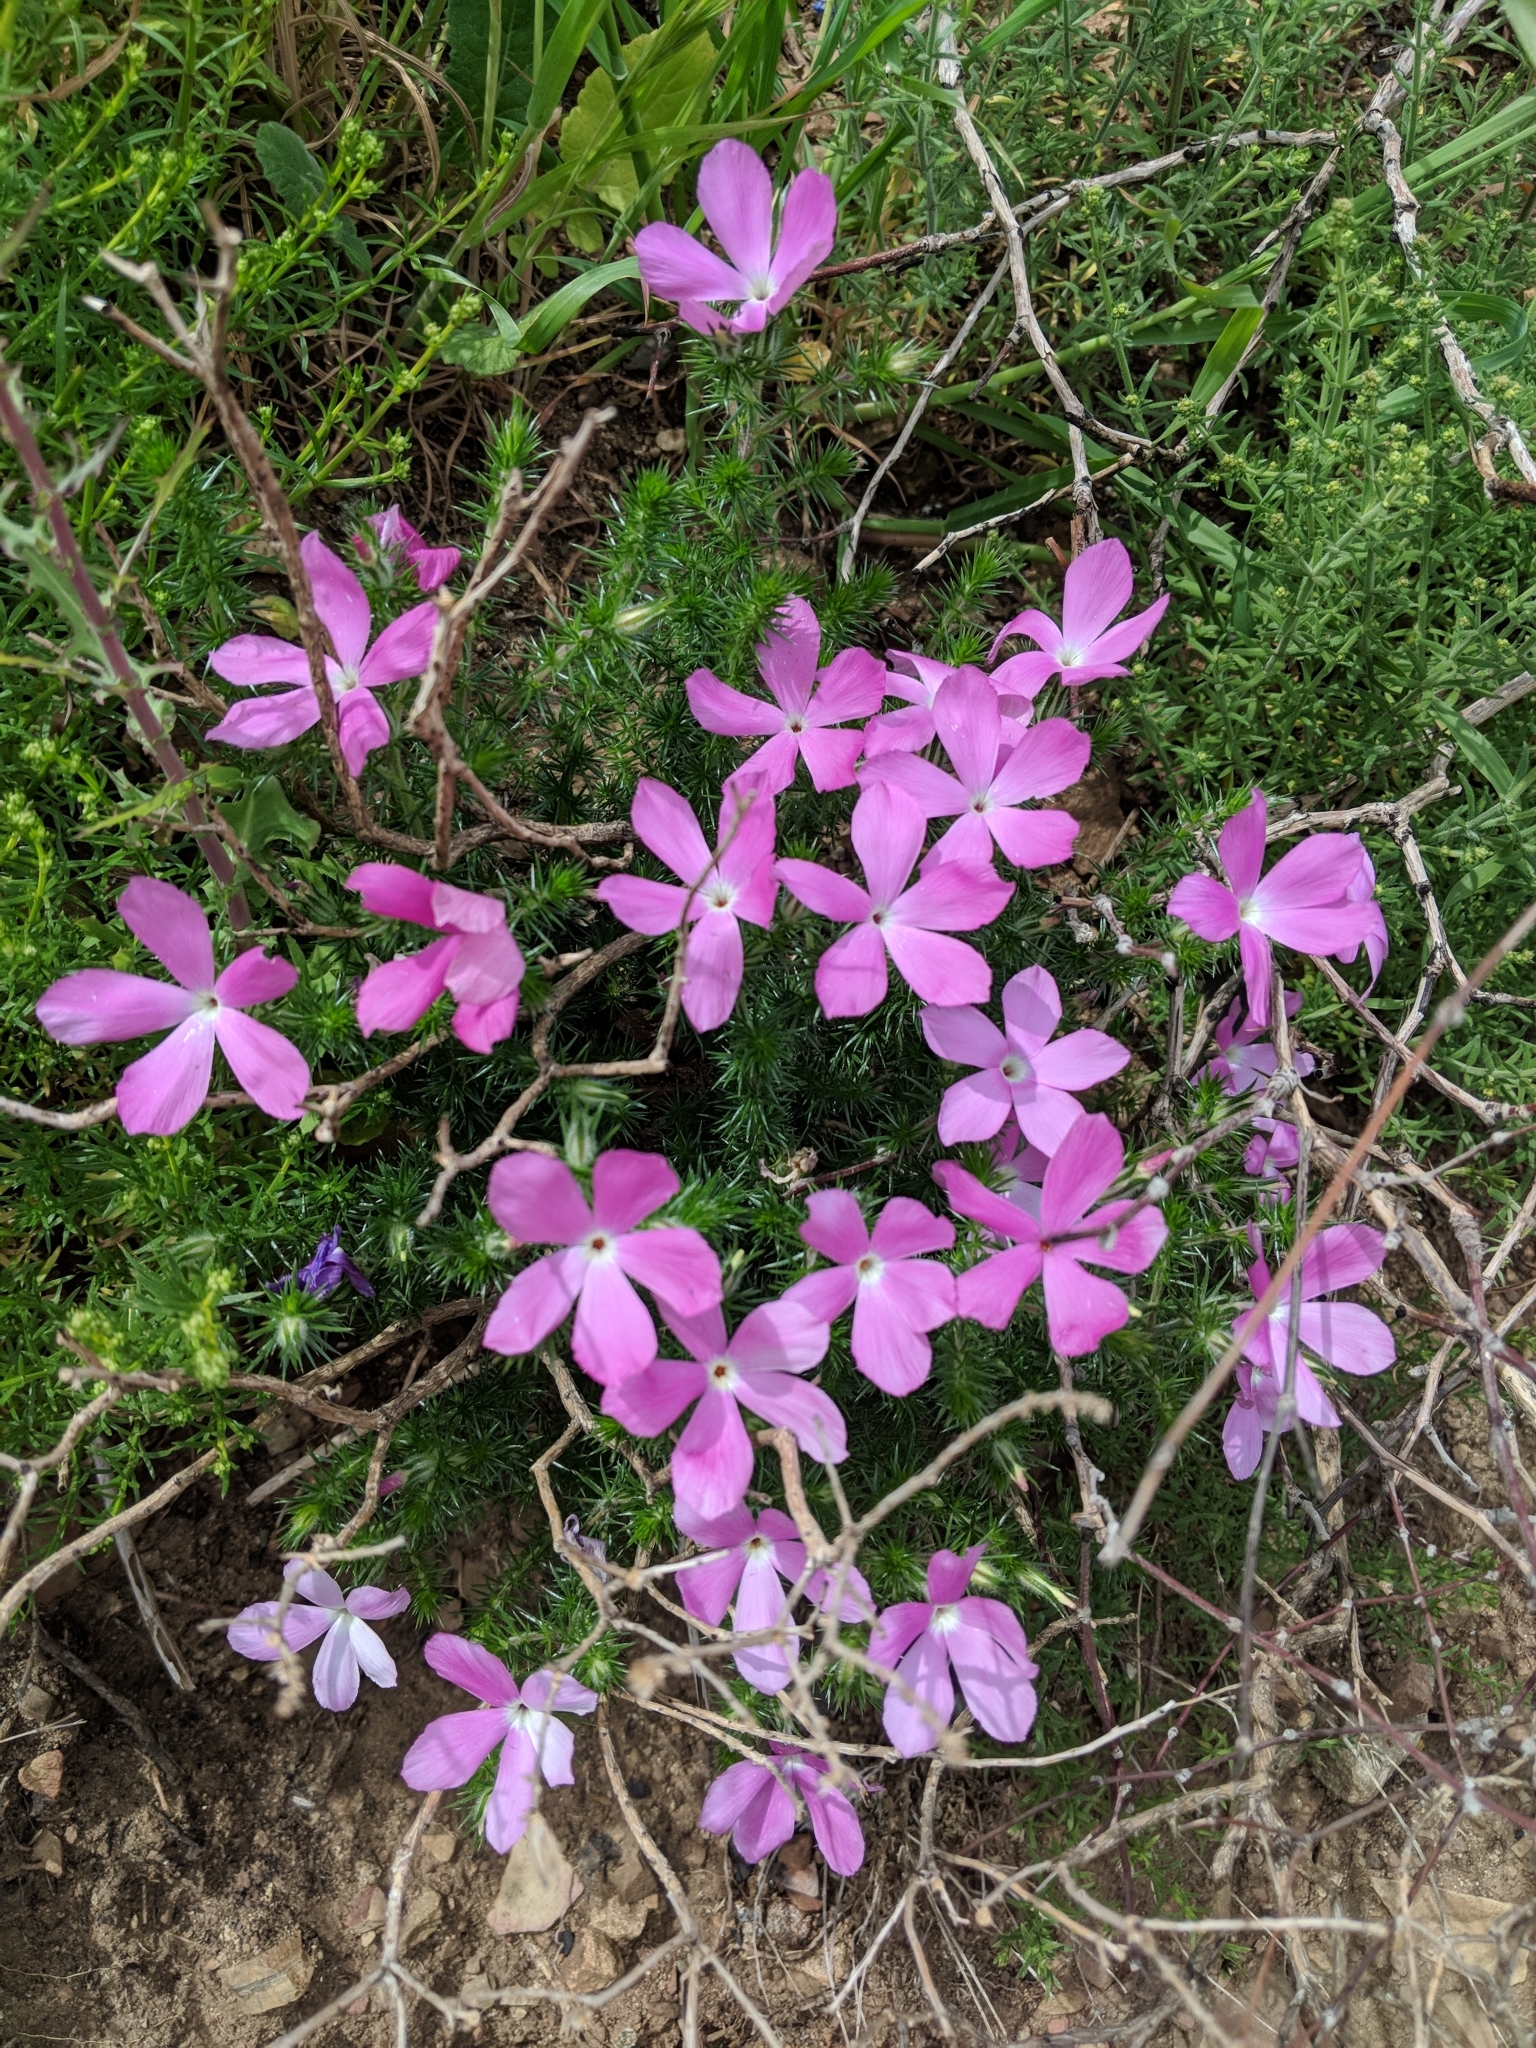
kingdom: Plantae
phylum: Tracheophyta
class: Magnoliopsida
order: Ericales
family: Polemoniaceae
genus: Linanthus
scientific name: Linanthus californicus
